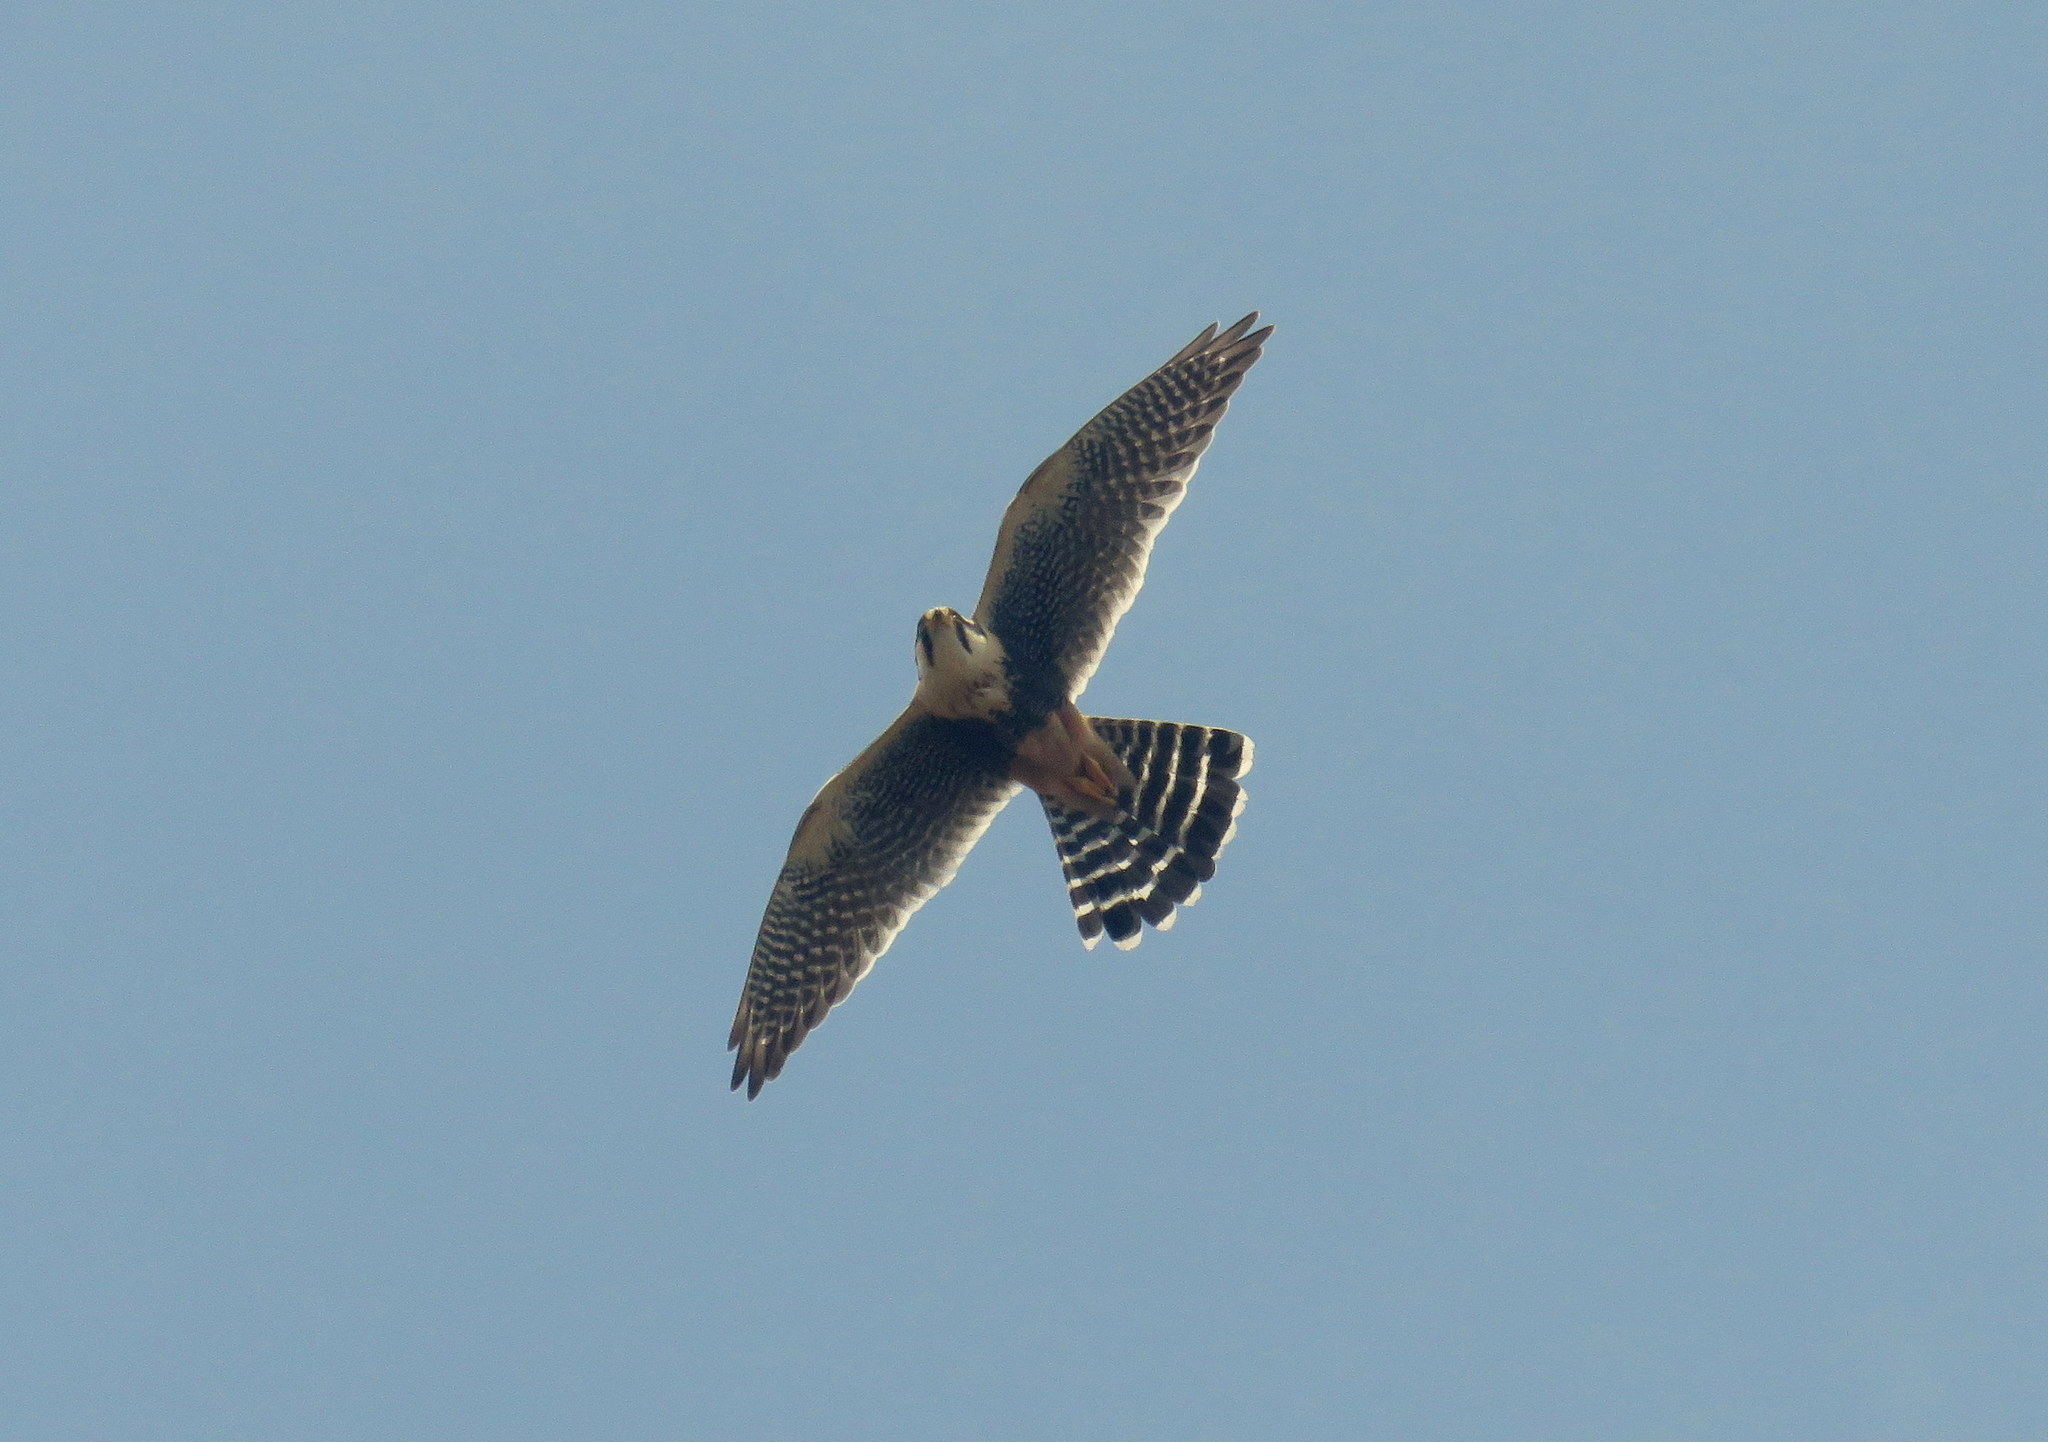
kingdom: Animalia
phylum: Chordata
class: Aves
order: Falconiformes
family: Falconidae
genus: Falco
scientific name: Falco femoralis
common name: Aplomado falcon
